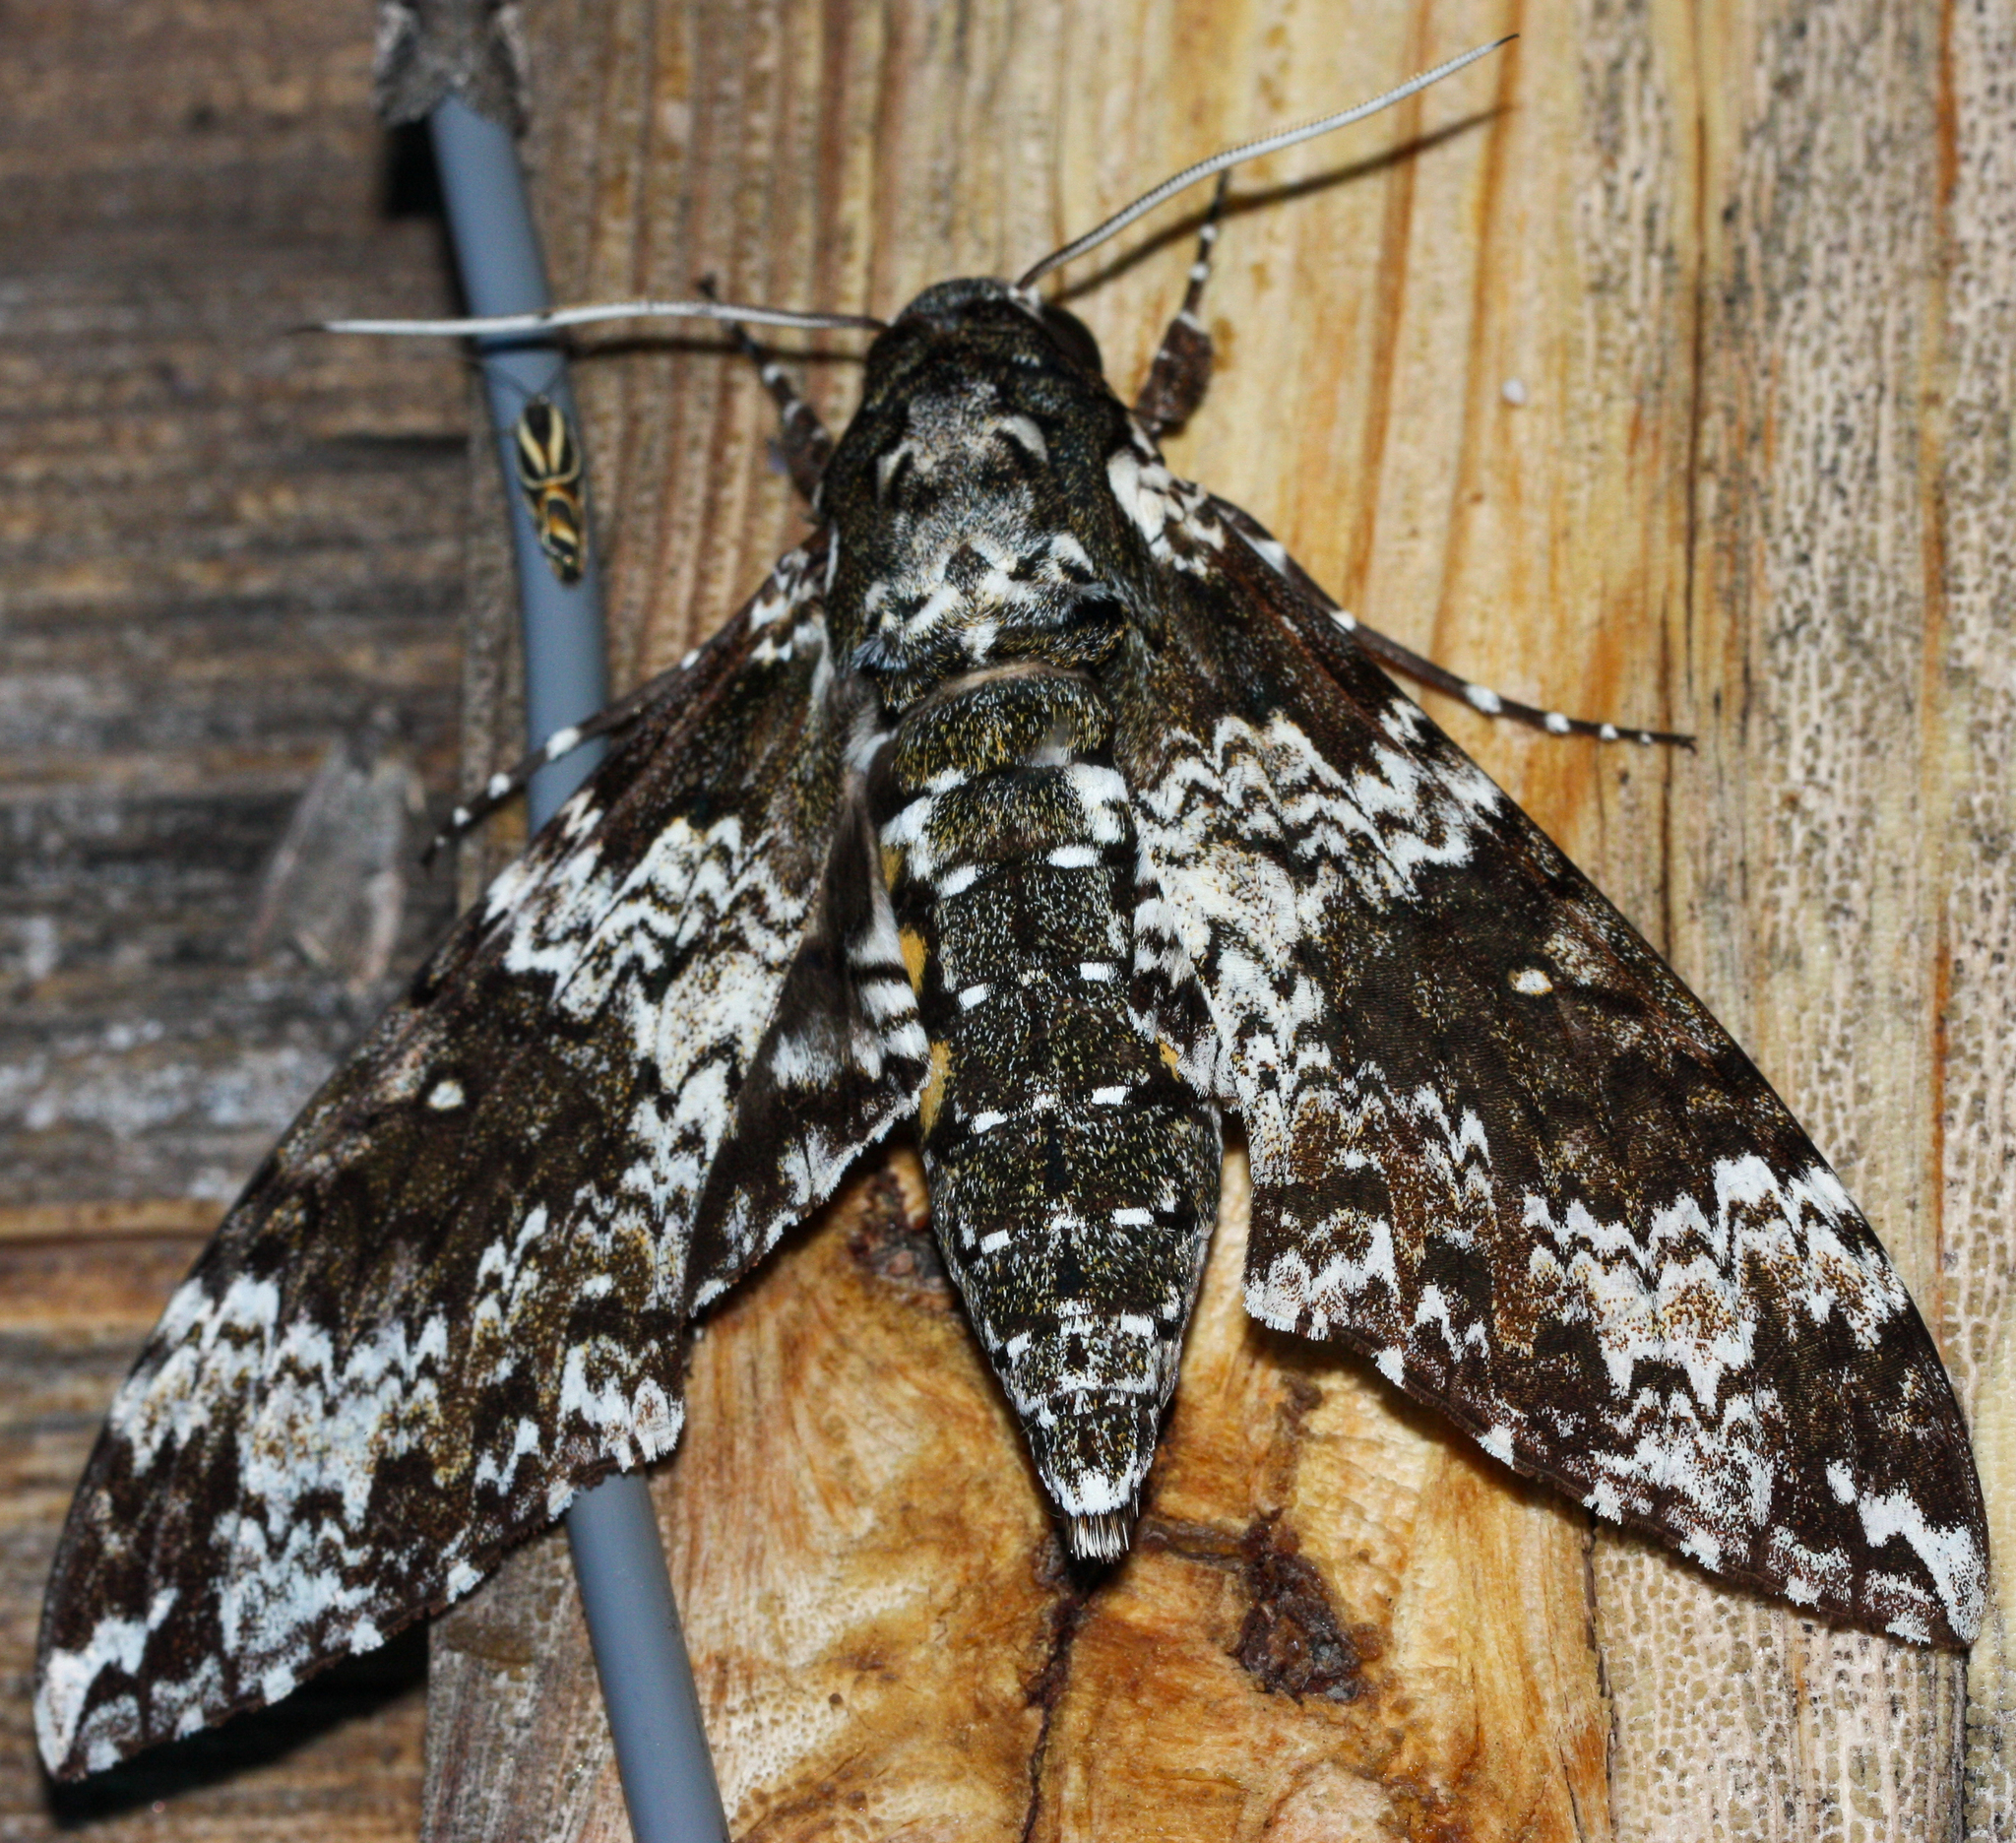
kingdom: Animalia
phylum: Arthropoda
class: Insecta
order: Lepidoptera
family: Sphingidae
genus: Manduca
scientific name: Manduca rustica
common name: Rustic sphinx
